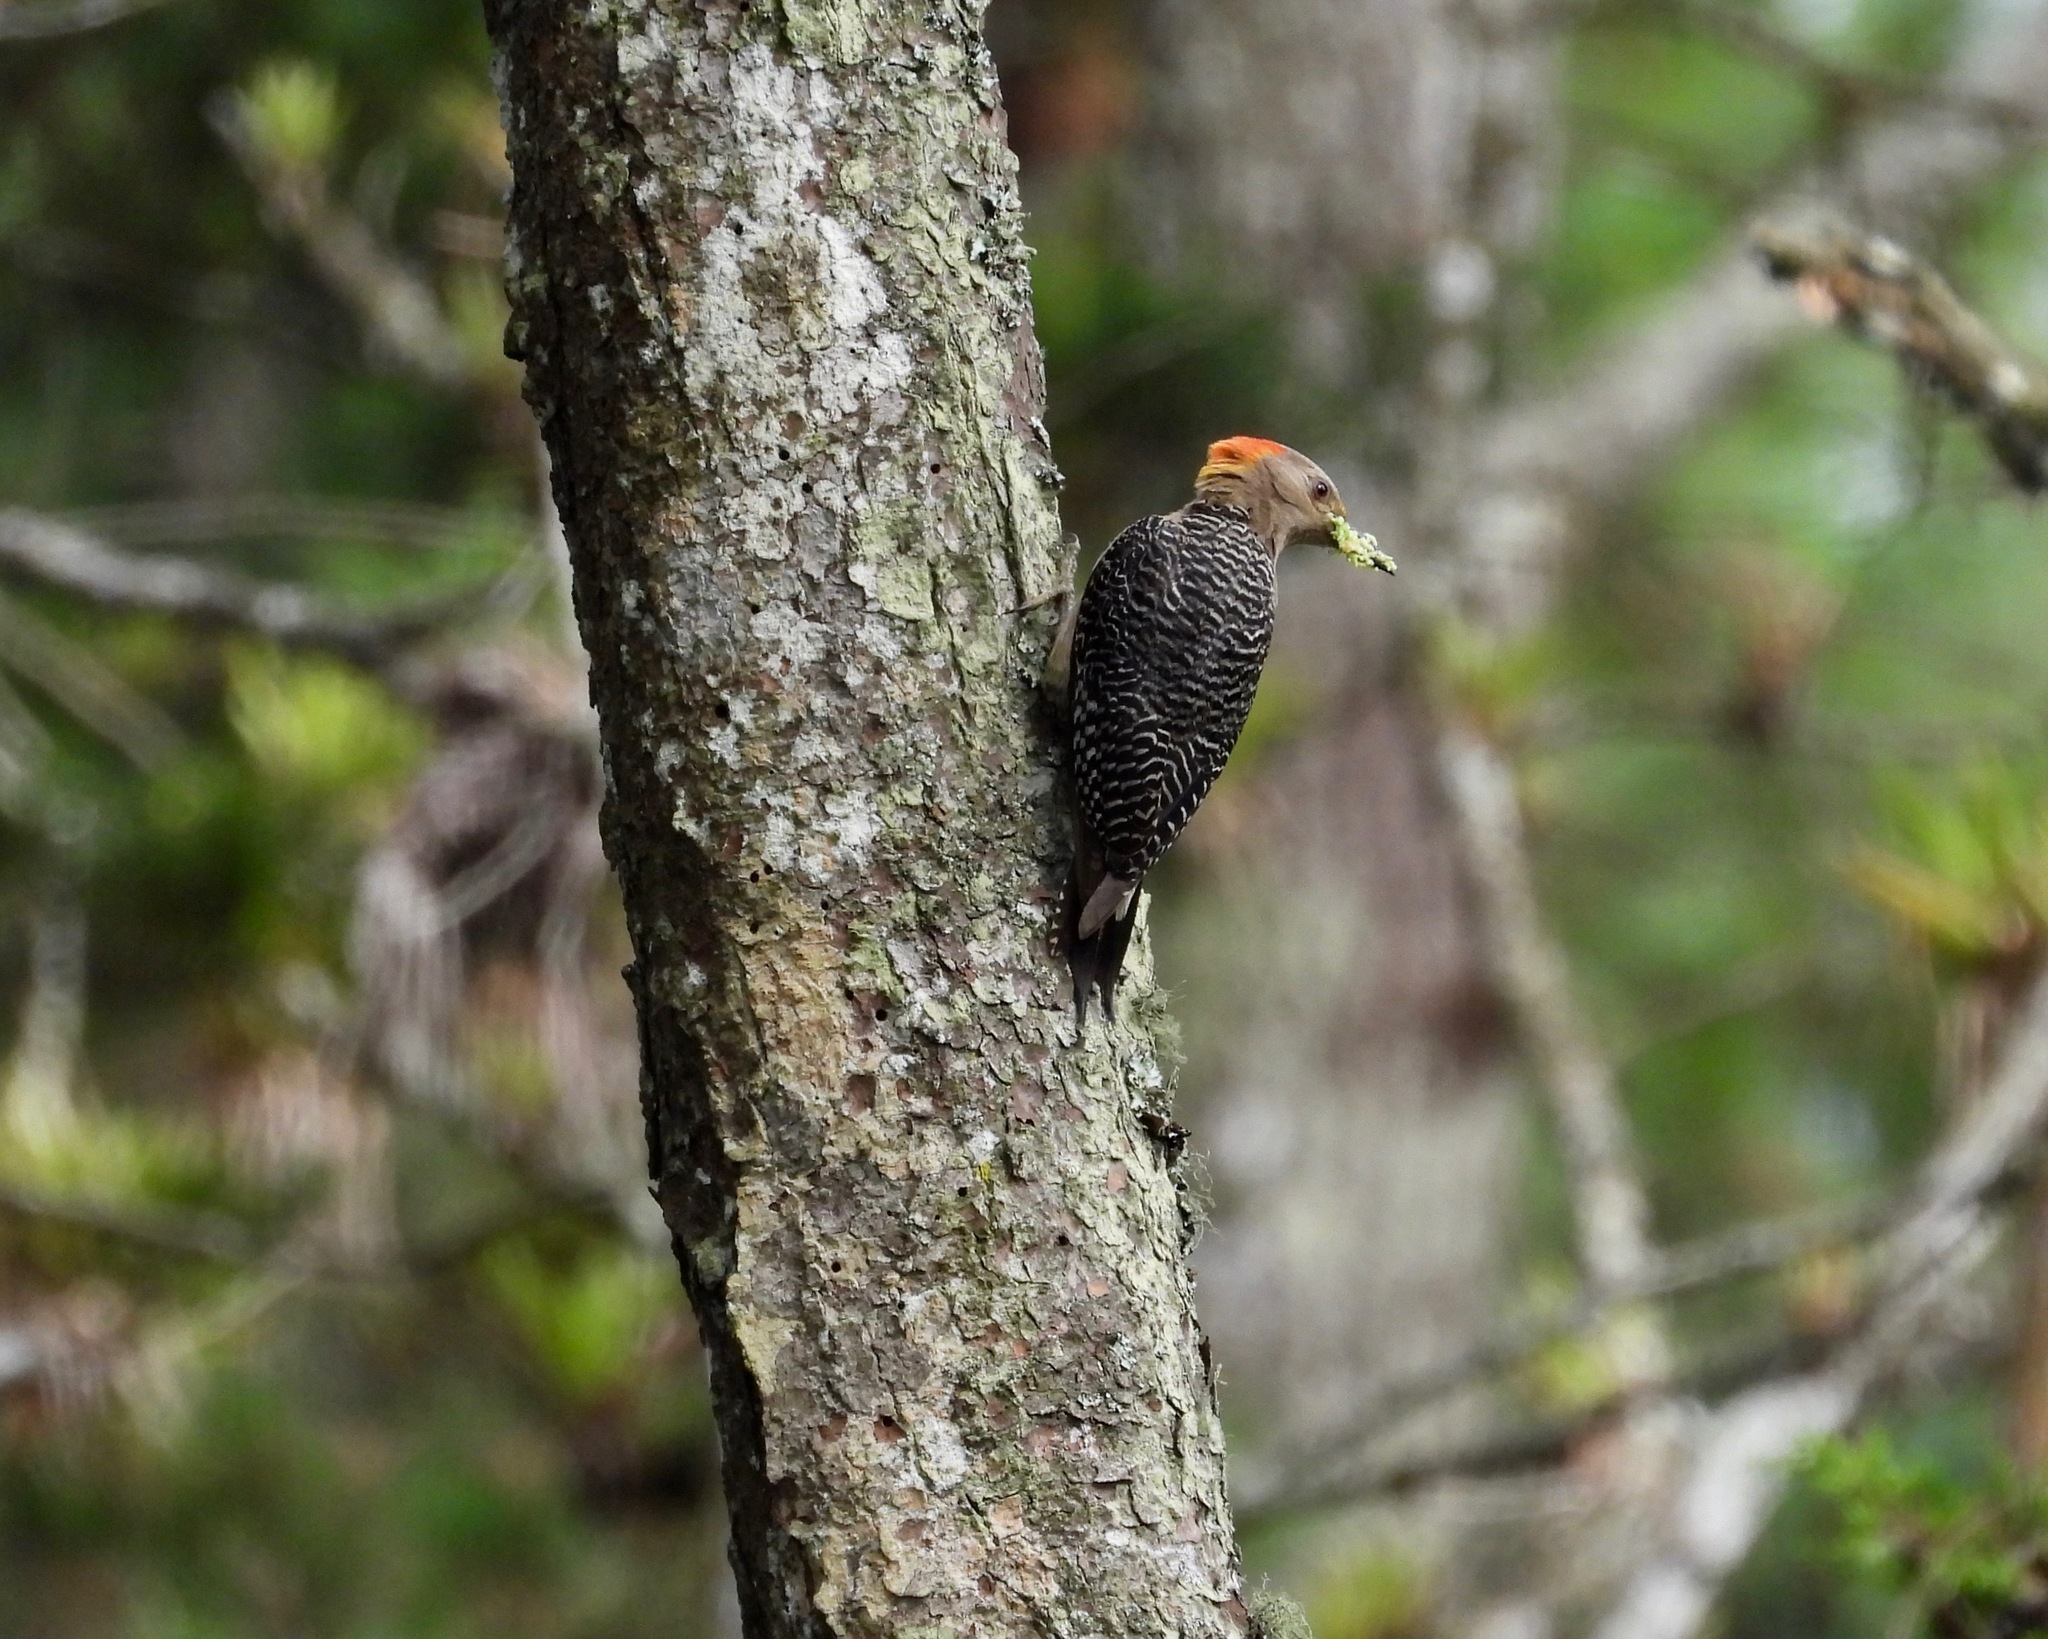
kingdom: Animalia
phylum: Chordata
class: Aves
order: Piciformes
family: Picidae
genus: Melanerpes
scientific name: Melanerpes aurifrons
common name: Golden-fronted woodpecker
